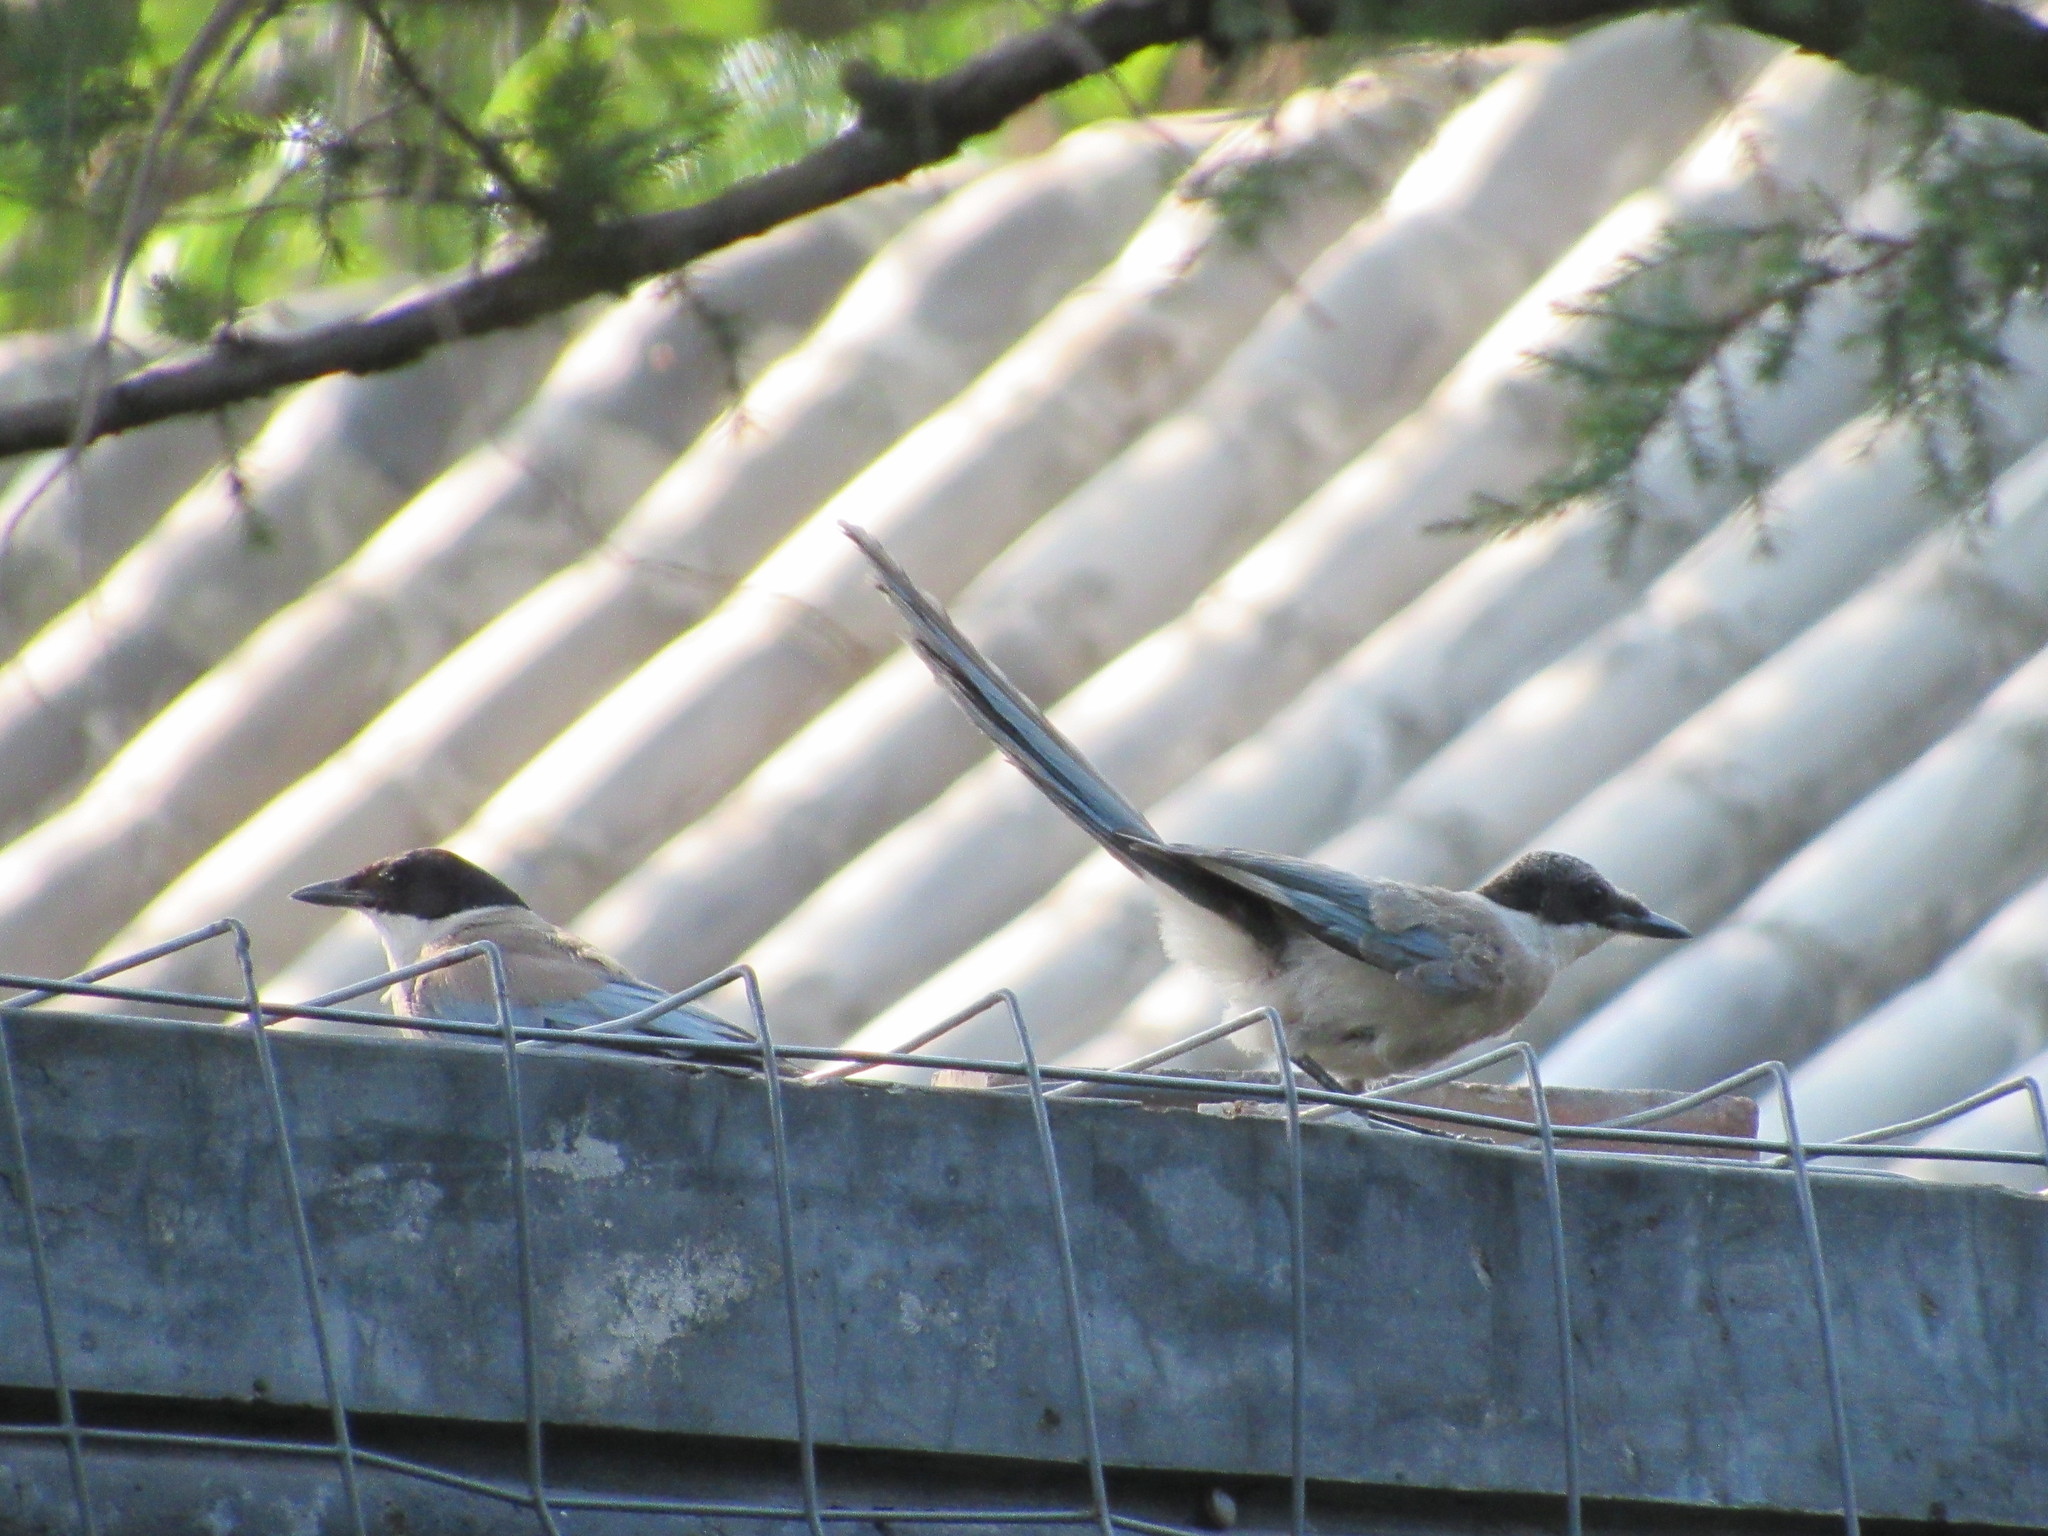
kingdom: Animalia
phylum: Chordata
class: Aves
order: Passeriformes
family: Corvidae
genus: Cyanopica
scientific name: Cyanopica cyanus
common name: Azure-winged magpie
